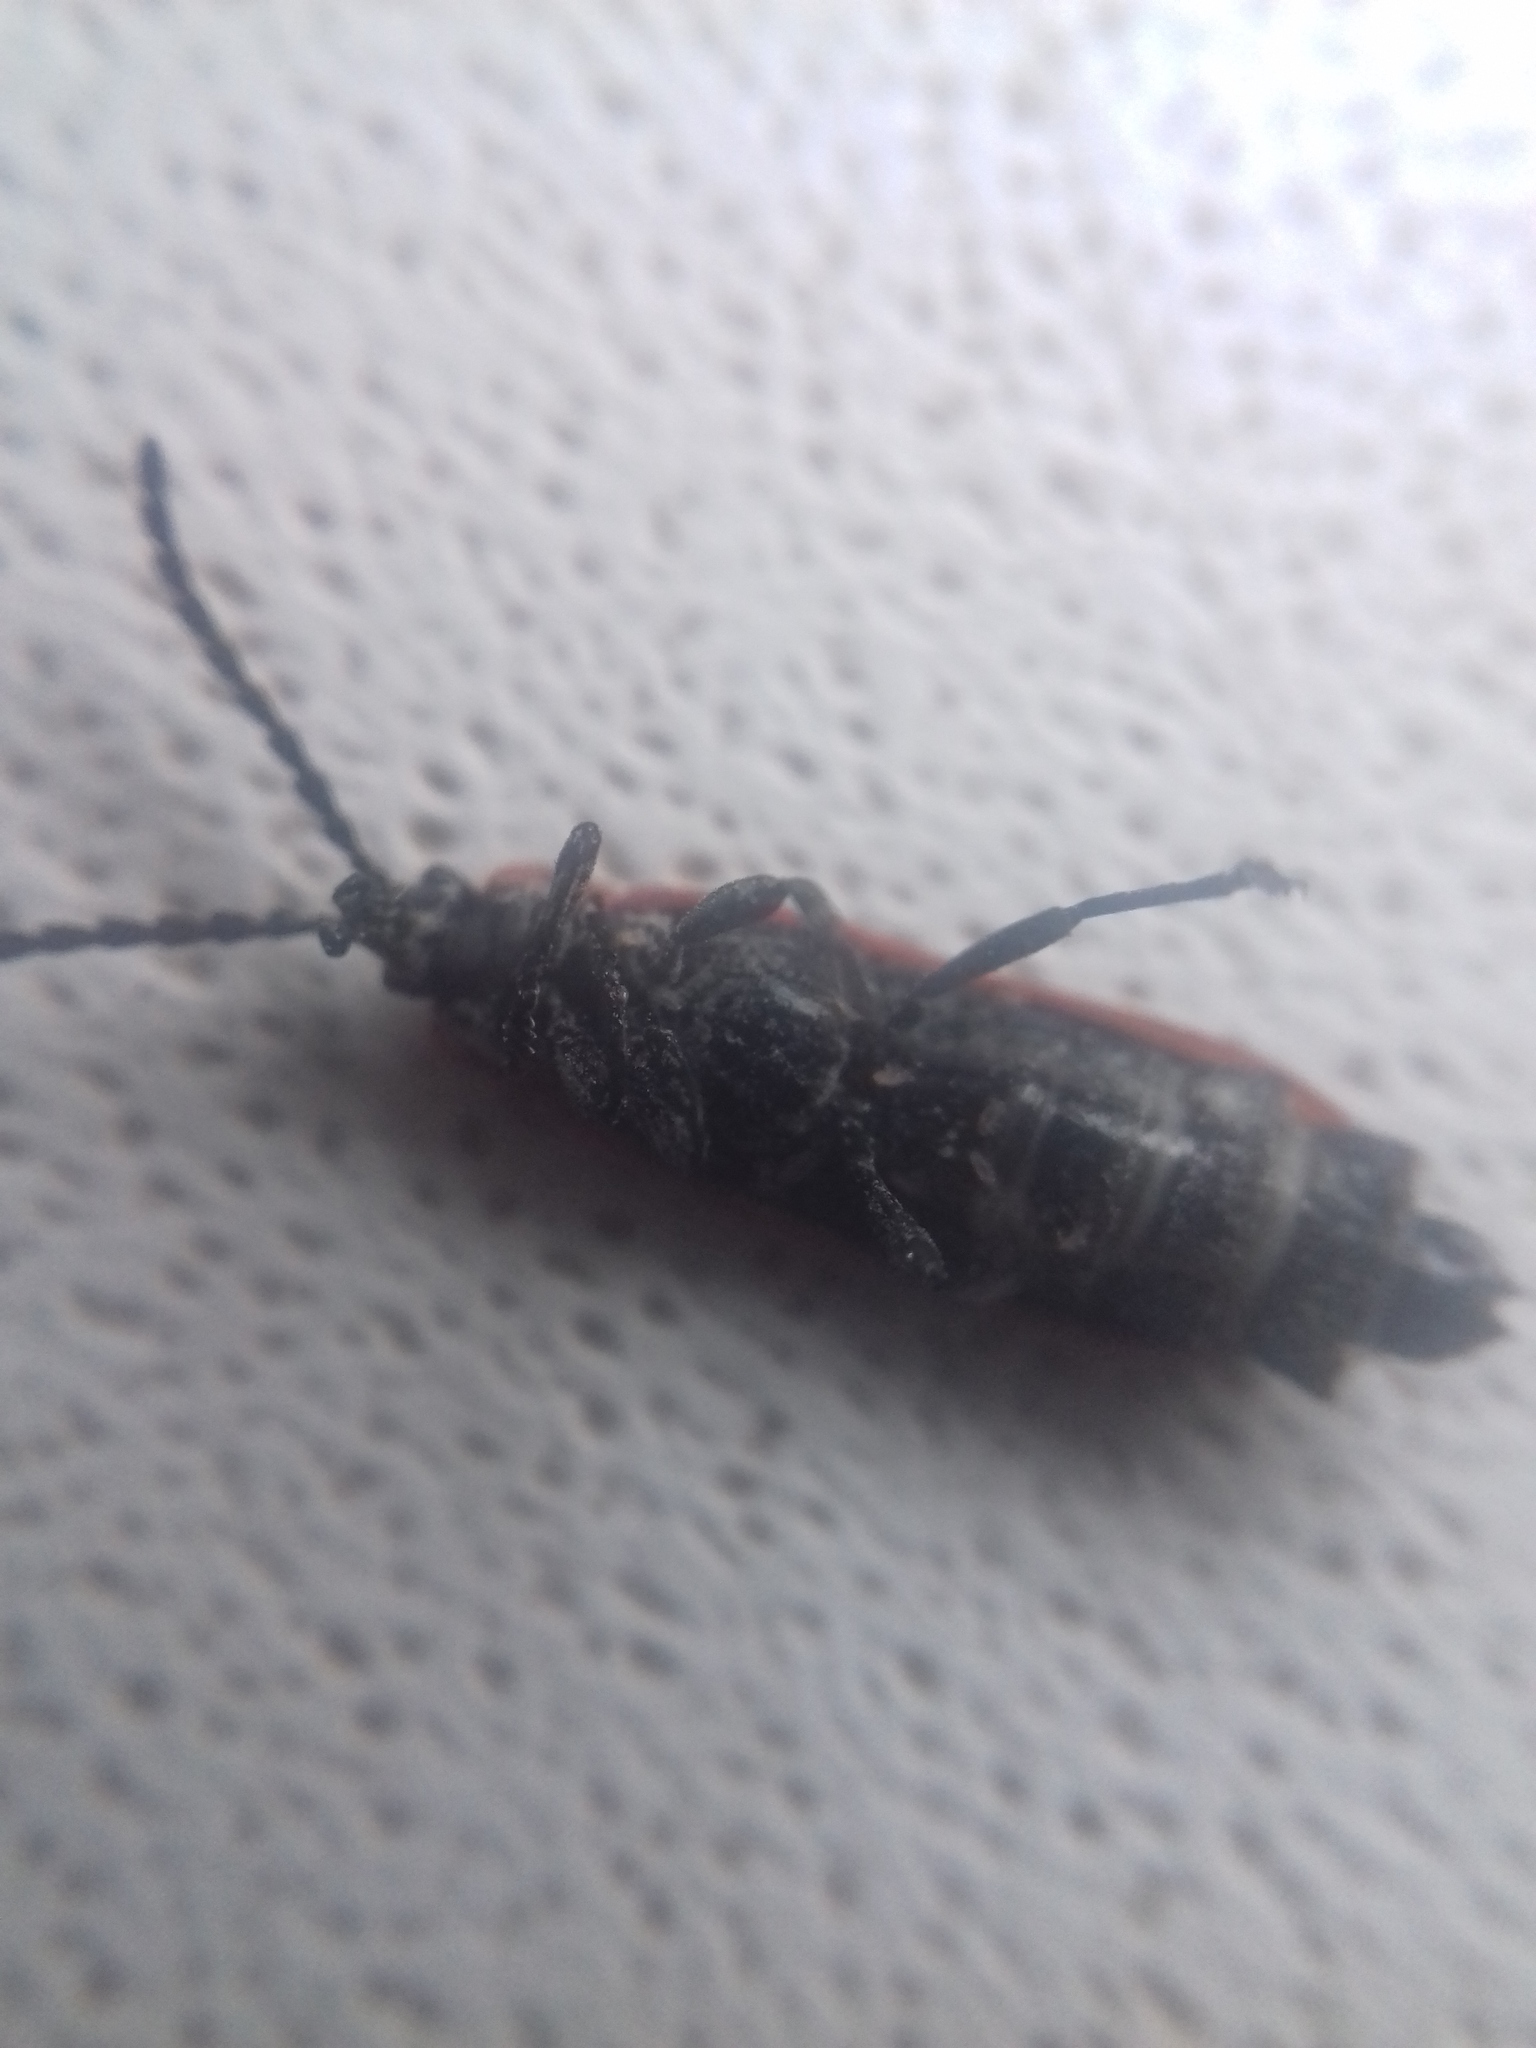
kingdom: Animalia
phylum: Arthropoda
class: Insecta
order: Coleoptera
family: Lycidae
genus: Lygistopterus
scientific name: Lygistopterus sanguineus
